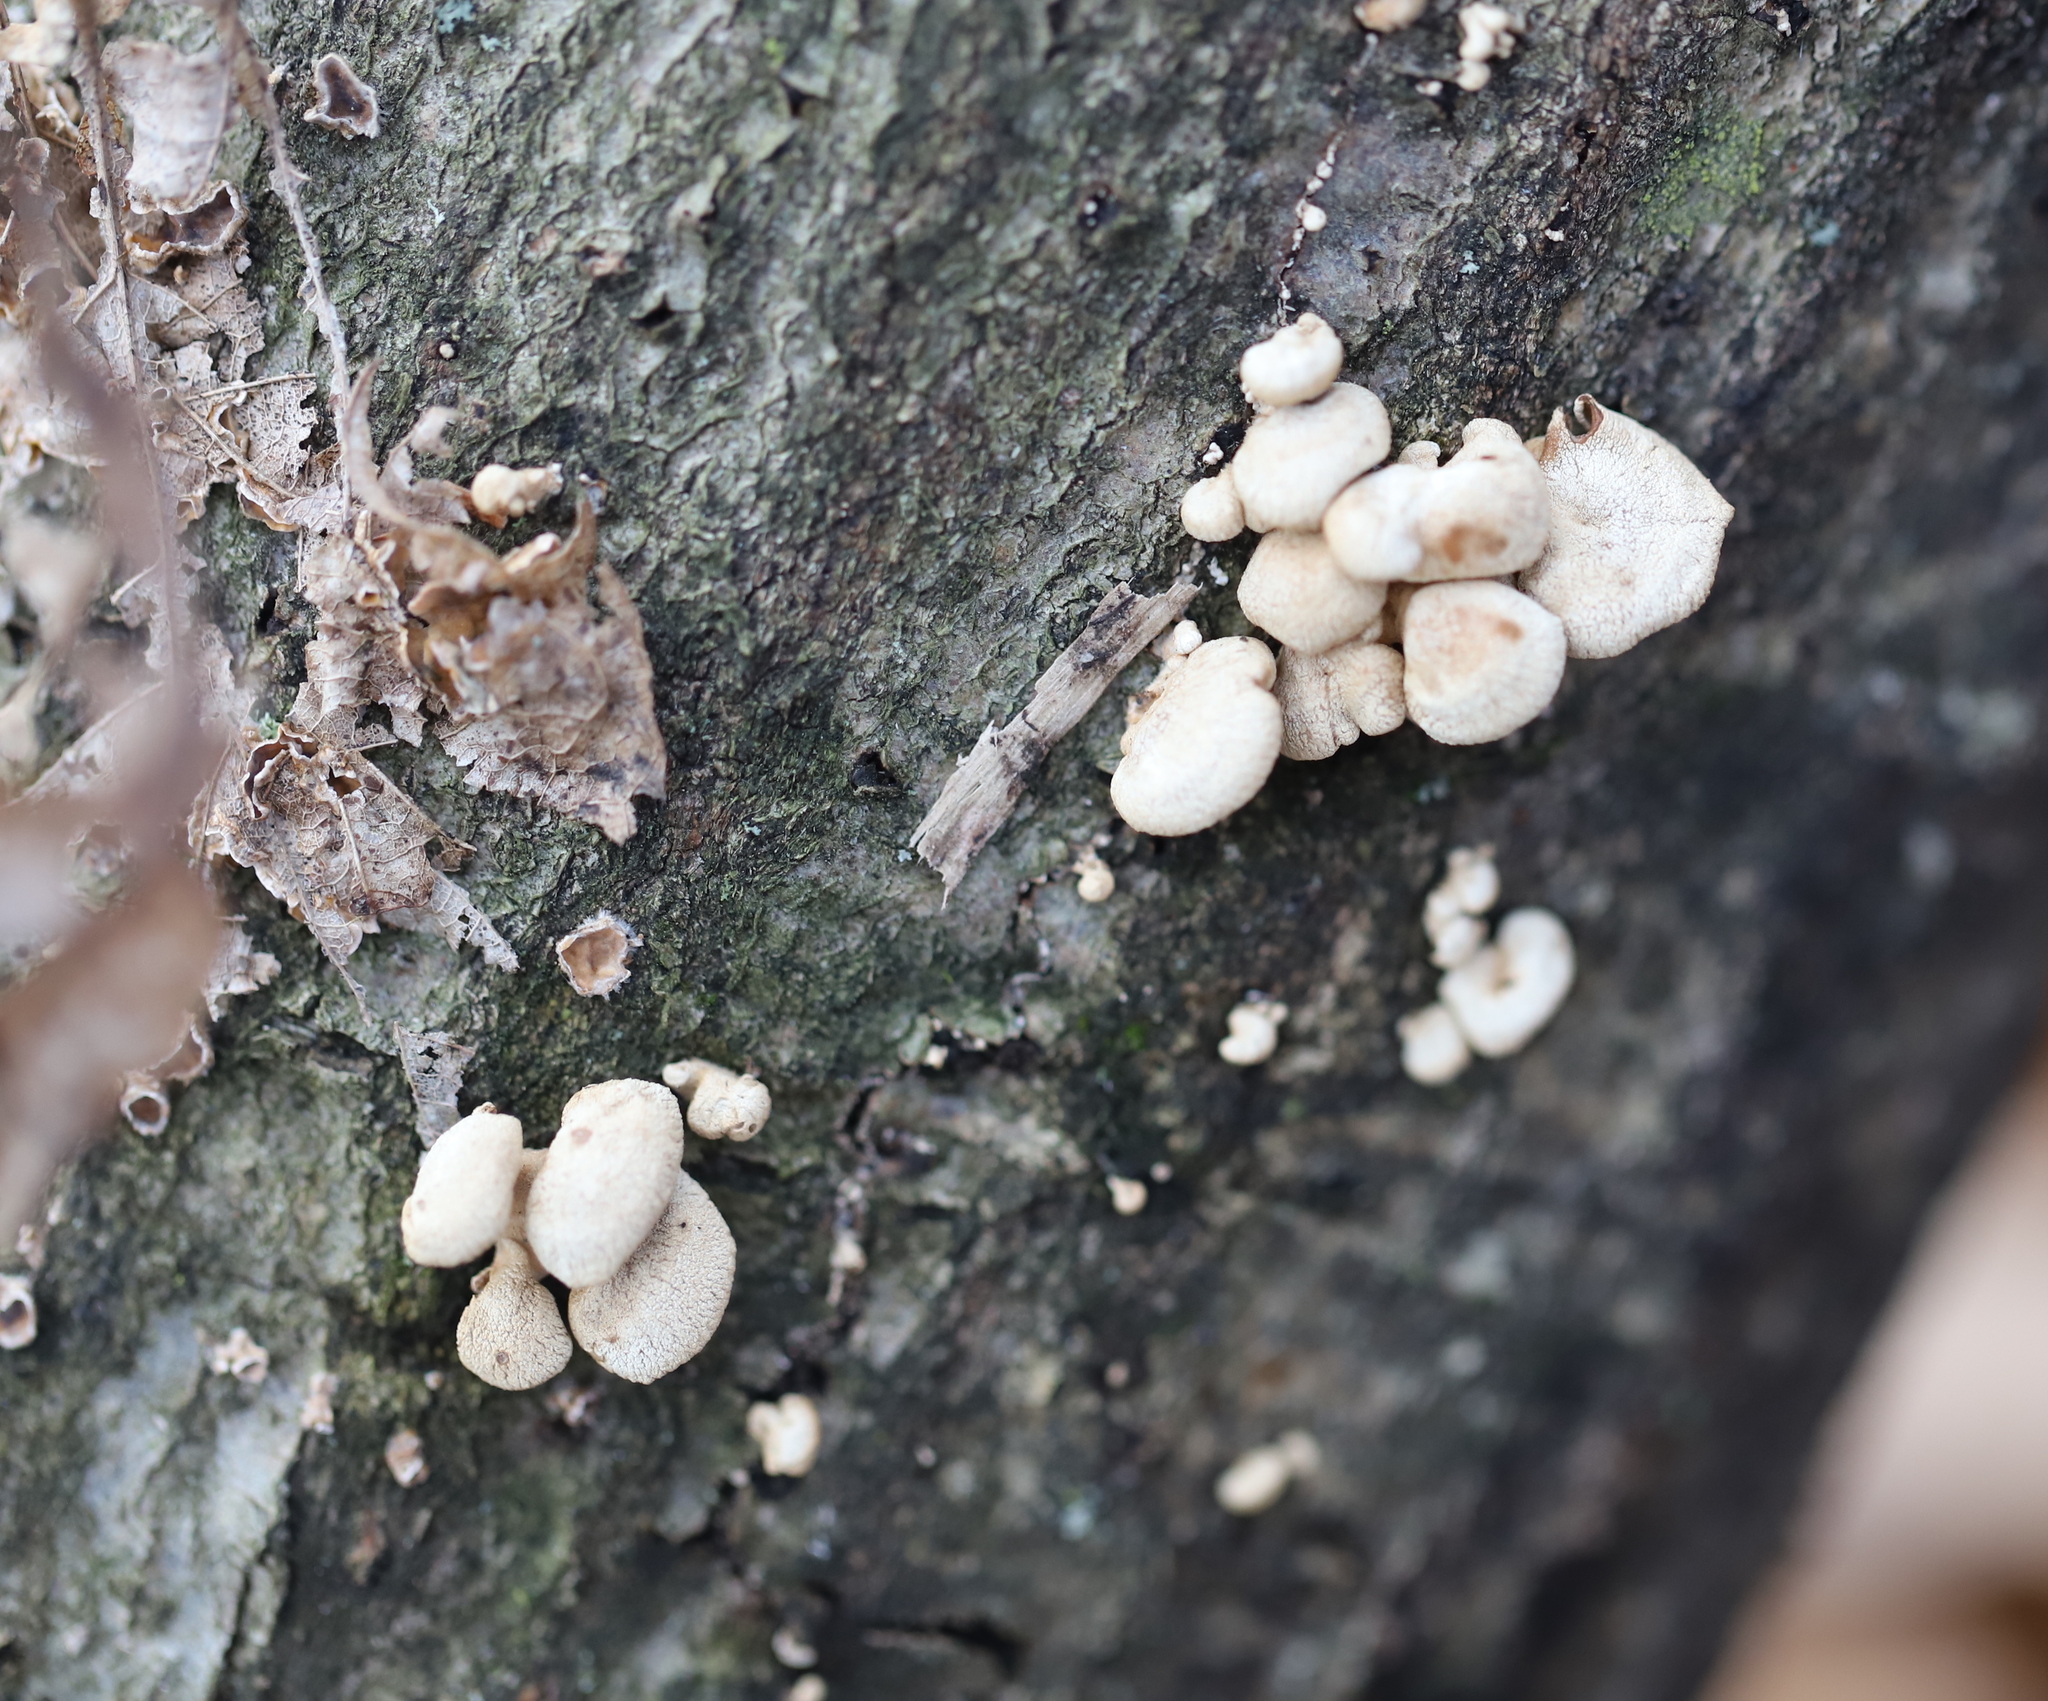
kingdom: Fungi
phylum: Basidiomycota
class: Agaricomycetes
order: Agaricales
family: Mycenaceae
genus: Panellus
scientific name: Panellus stipticus
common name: Bitter oysterling
